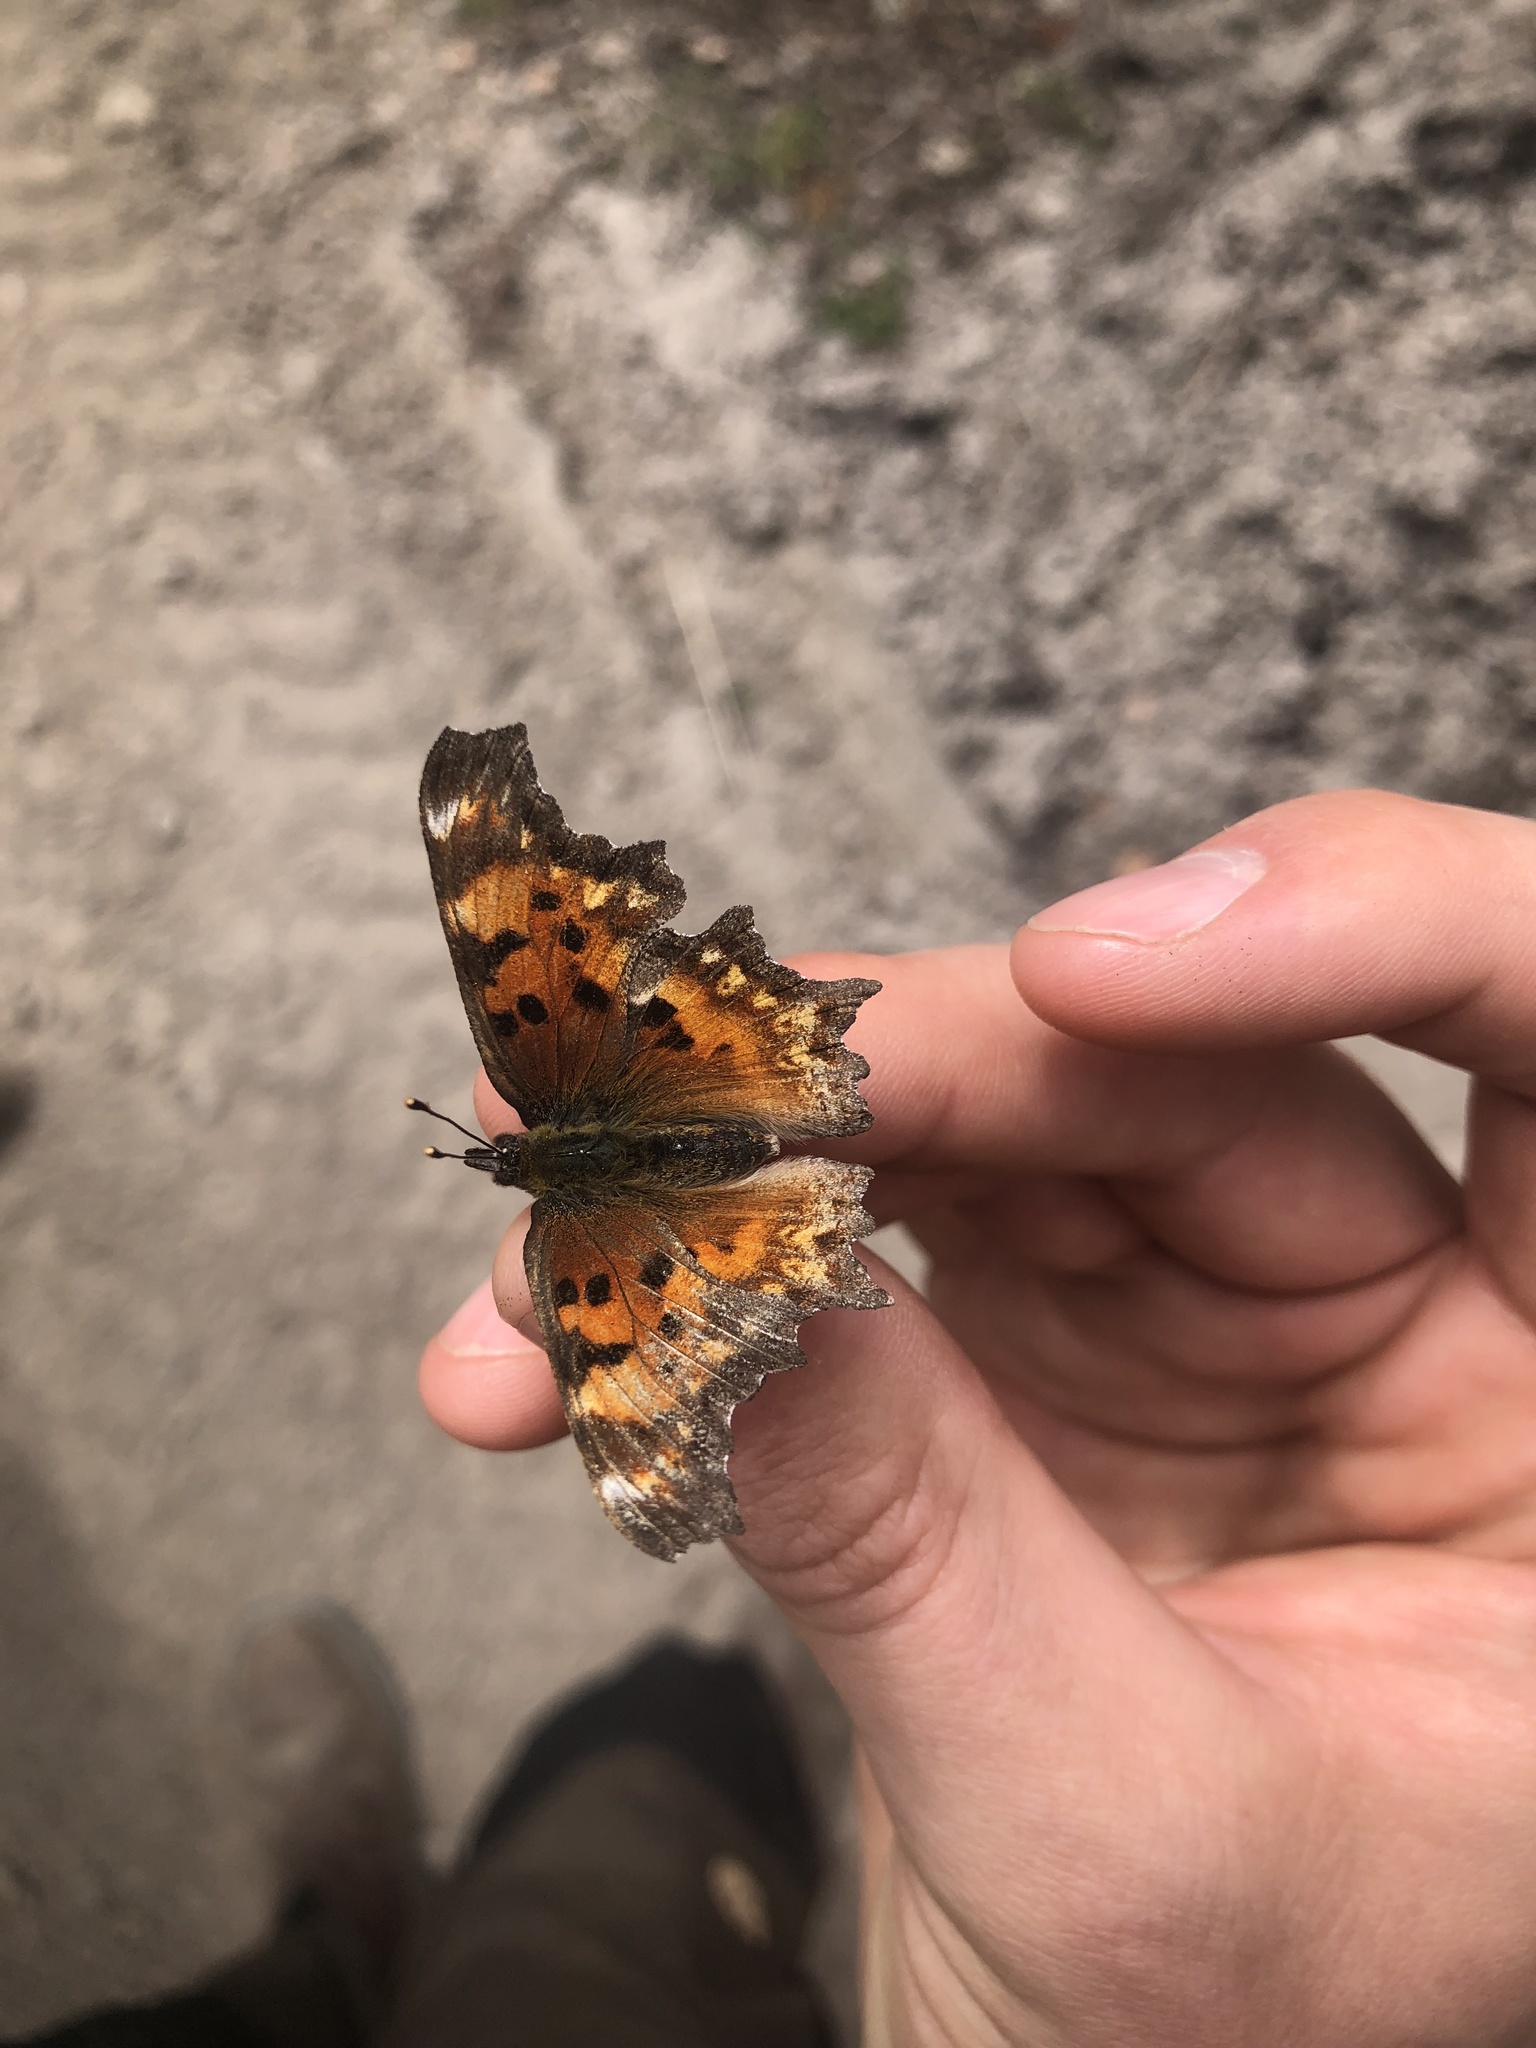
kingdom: Animalia
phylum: Arthropoda
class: Insecta
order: Lepidoptera
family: Nymphalidae
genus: Polygonia
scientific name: Polygonia gracilis
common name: Hoary comma
